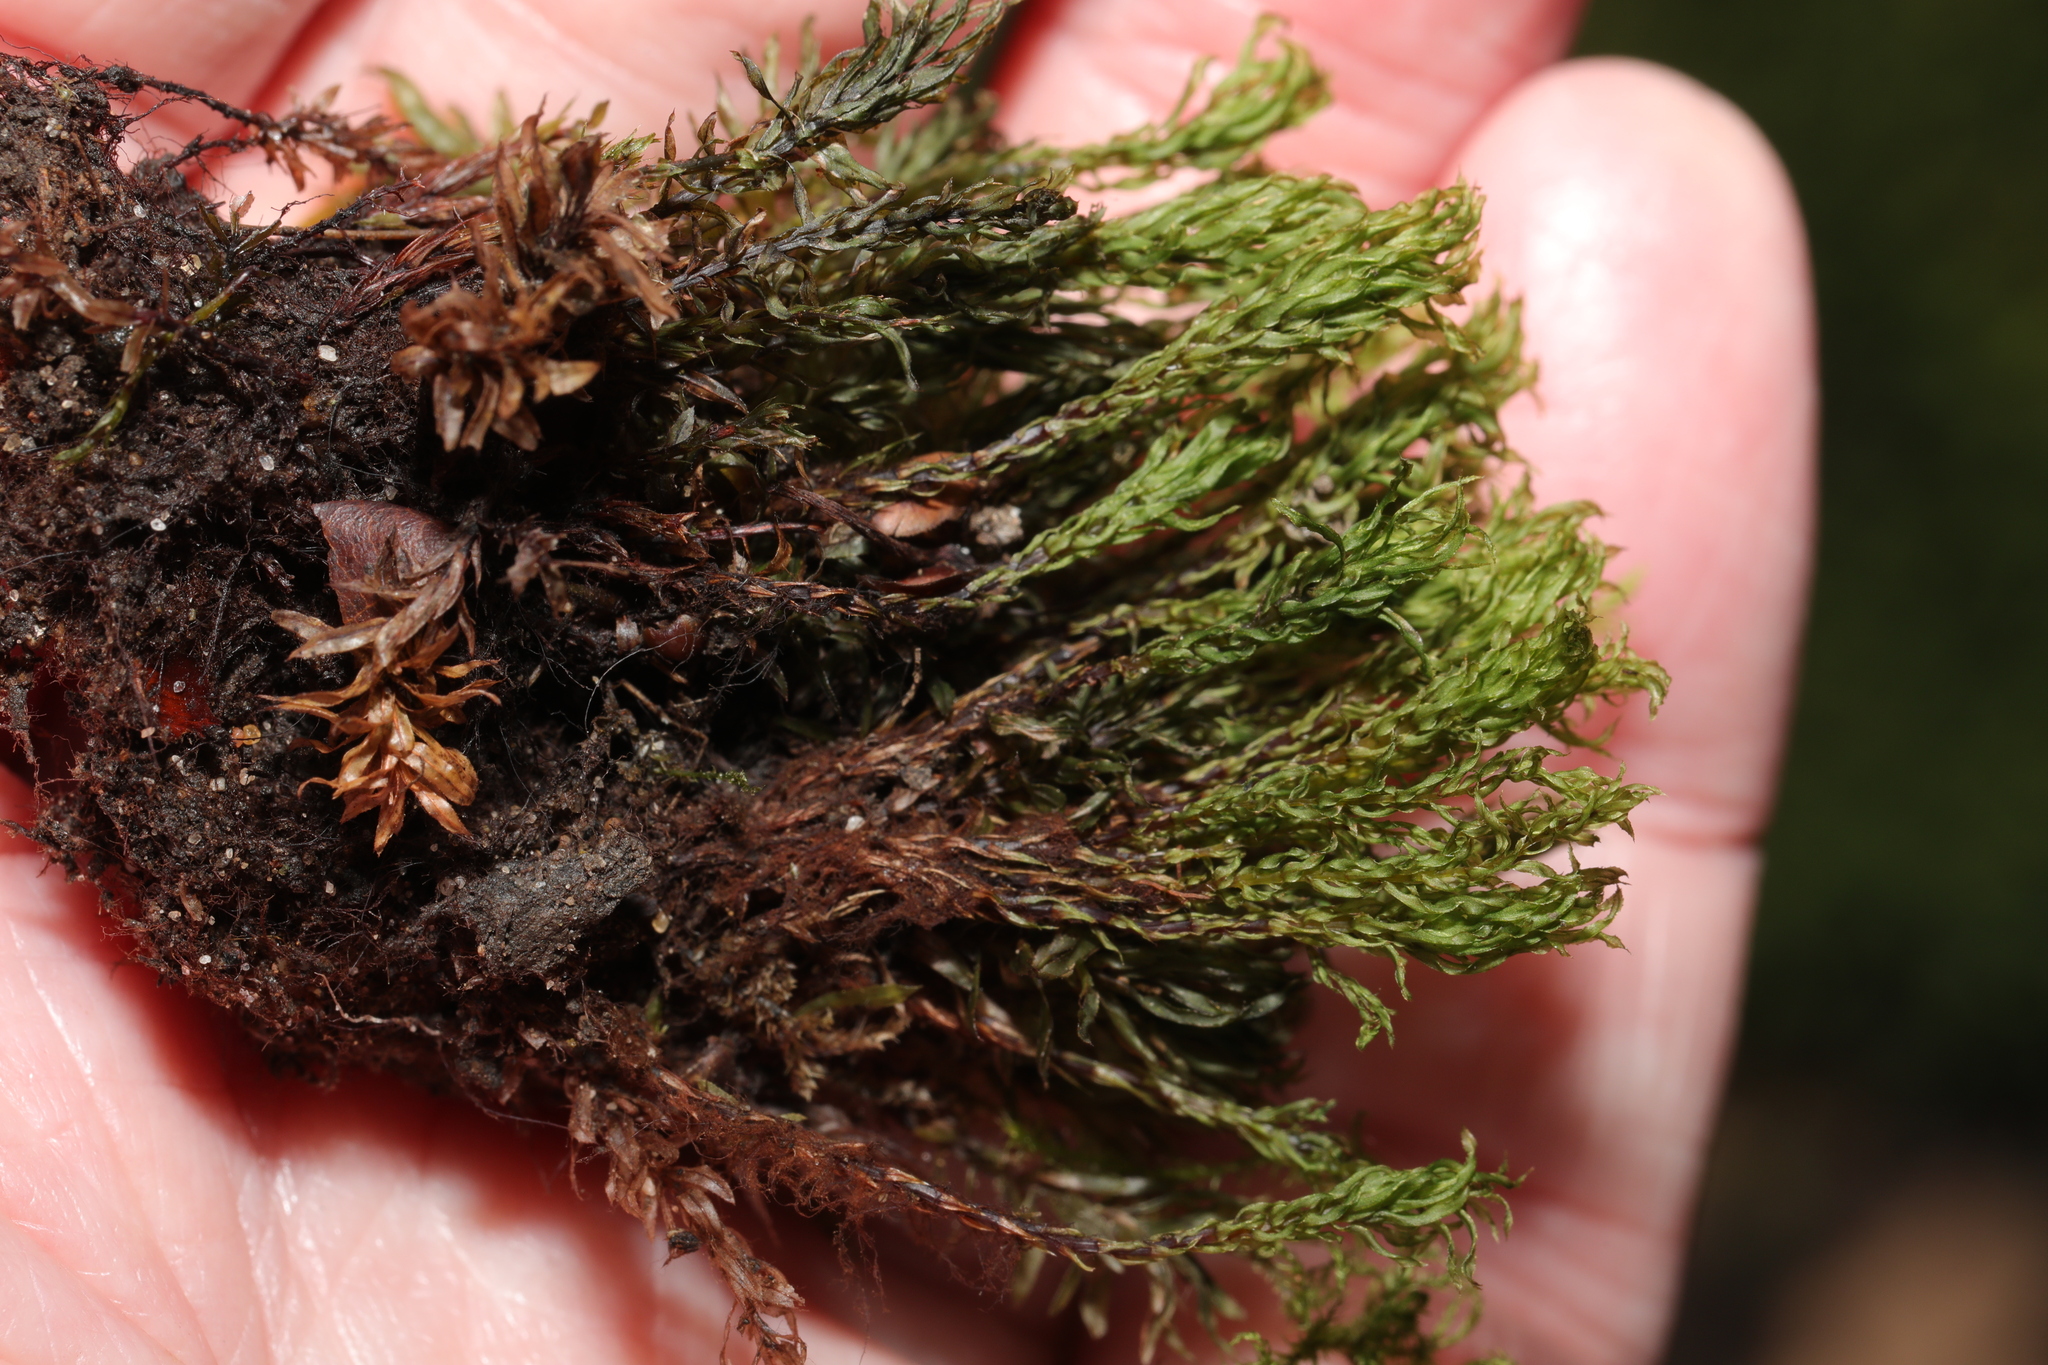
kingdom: Plantae
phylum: Bryophyta
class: Bryopsida
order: Bryales
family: Mniaceae
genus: Mnium
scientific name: Mnium hornum
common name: Swan's-neck leafy moss
